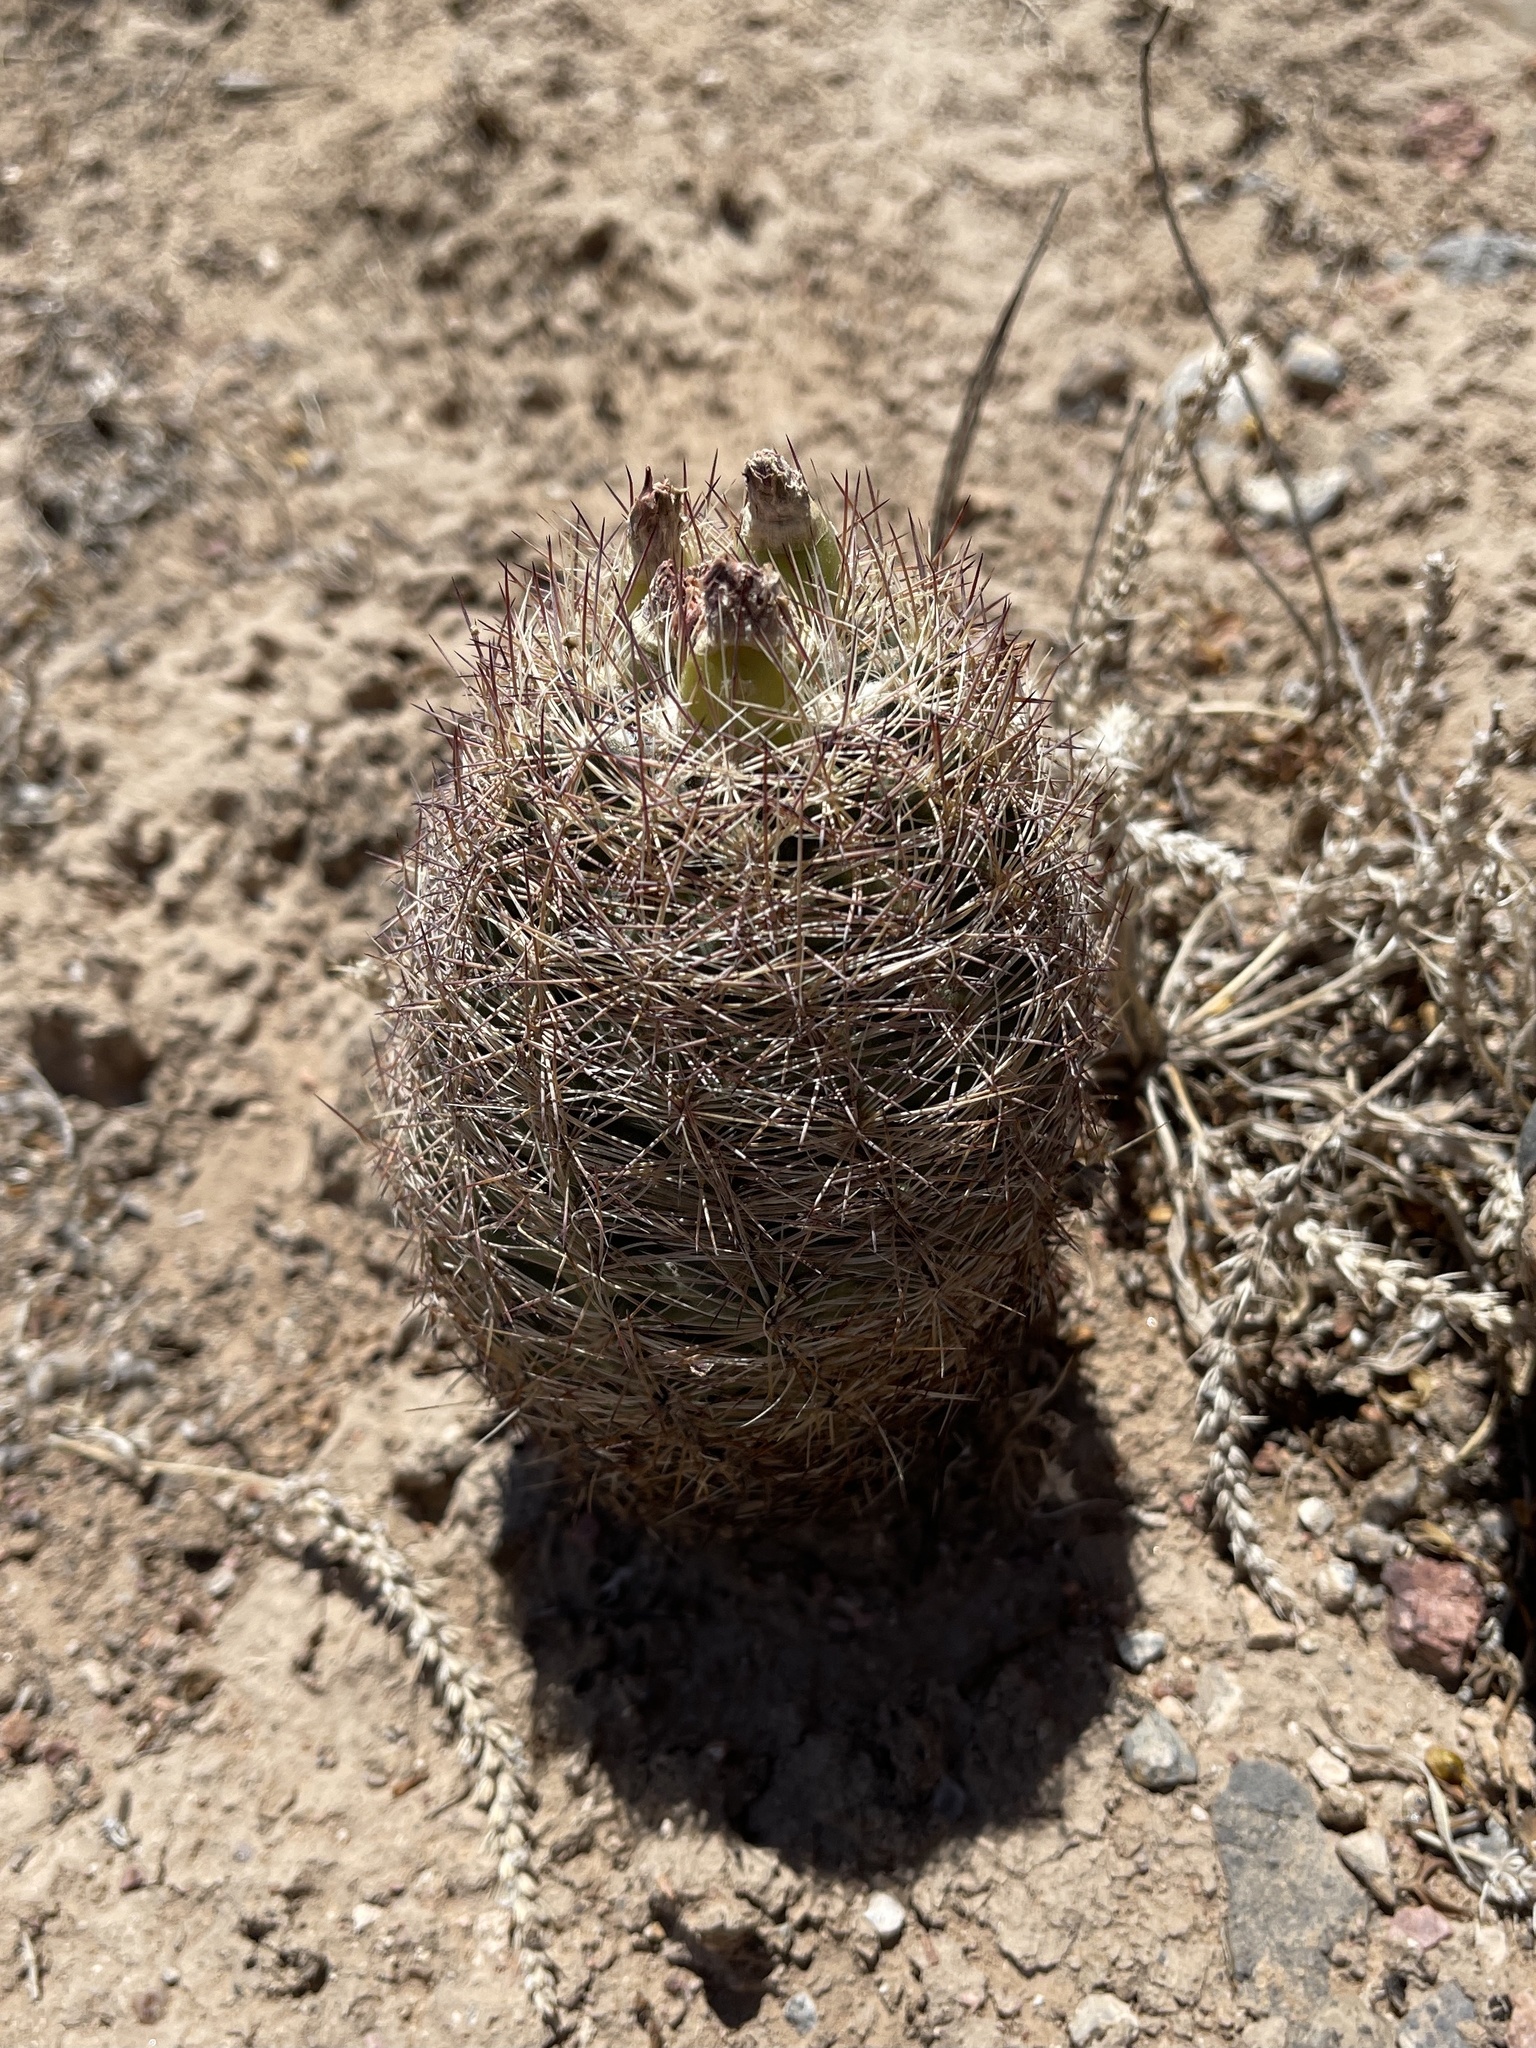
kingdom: Plantae
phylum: Tracheophyta
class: Magnoliopsida
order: Caryophyllales
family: Cactaceae
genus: Sclerocactus
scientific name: Sclerocactus intertextus
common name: White fish-hook cactus
